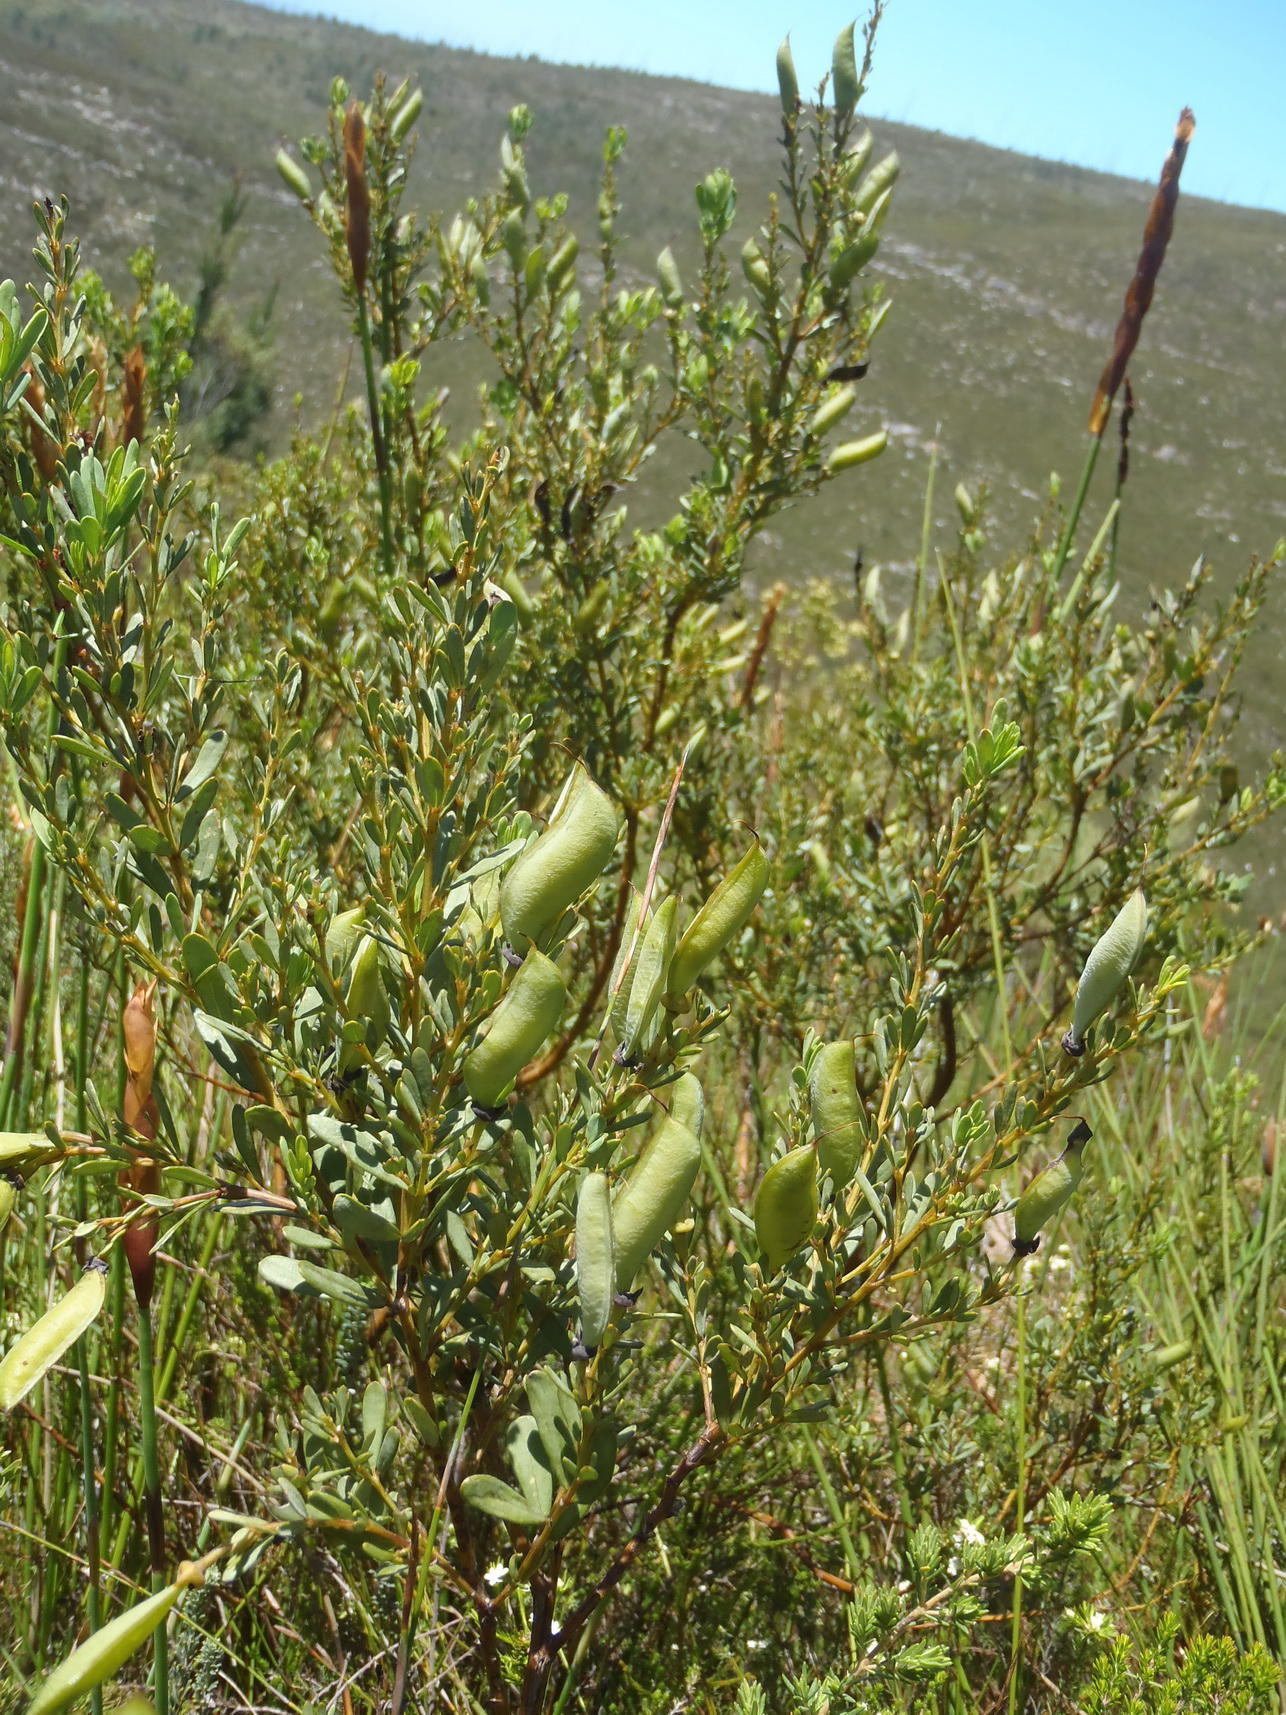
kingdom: Plantae
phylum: Tracheophyta
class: Magnoliopsida
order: Fabales
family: Fabaceae
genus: Cyclopia
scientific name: Cyclopia subternata
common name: Honeybush tea
